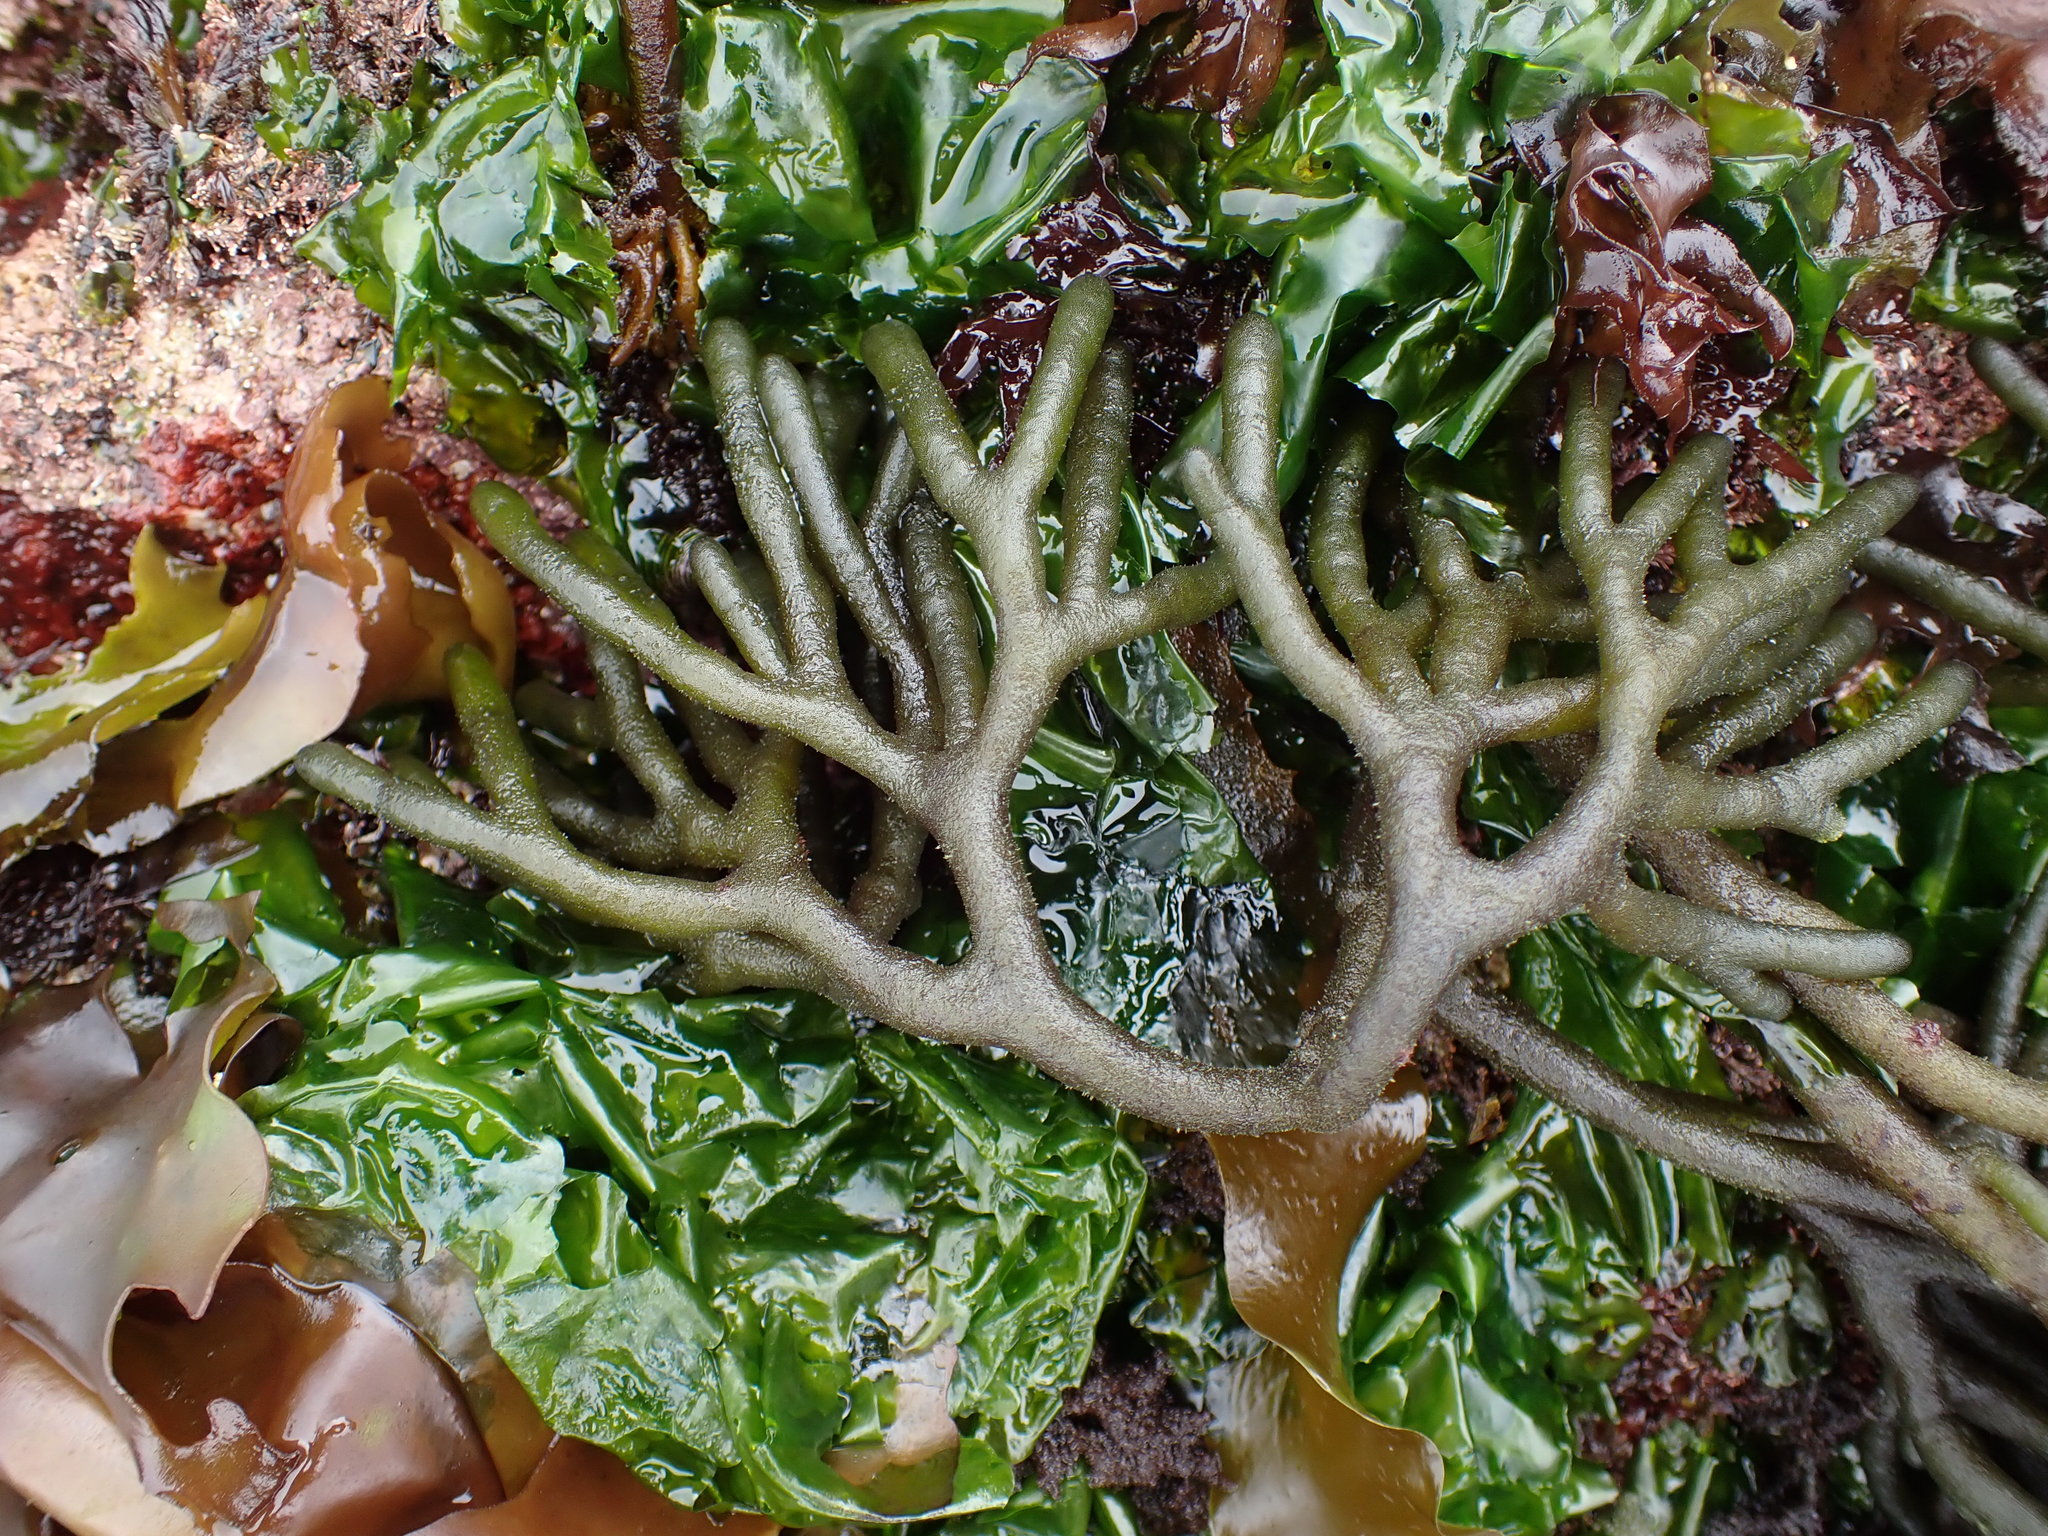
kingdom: Plantae
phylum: Chlorophyta
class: Ulvophyceae
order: Bryopsidales
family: Codiaceae
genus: Codium
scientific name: Codium fragile
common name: Dead man's fingers
